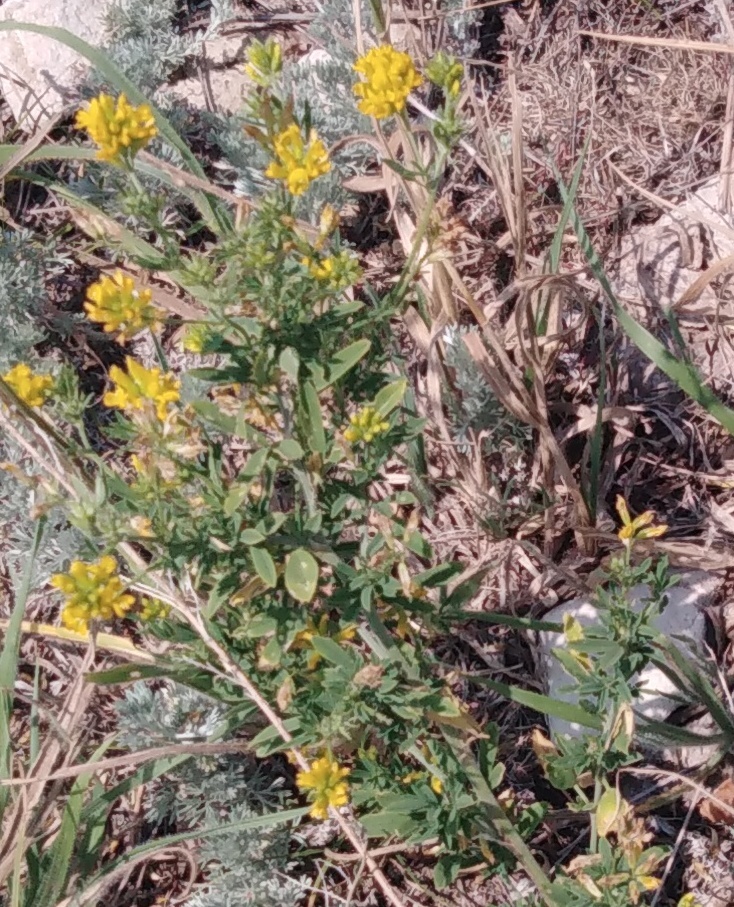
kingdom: Plantae
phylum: Tracheophyta
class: Magnoliopsida
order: Fabales
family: Fabaceae
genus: Medicago
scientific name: Medicago falcata
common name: Sickle medick
